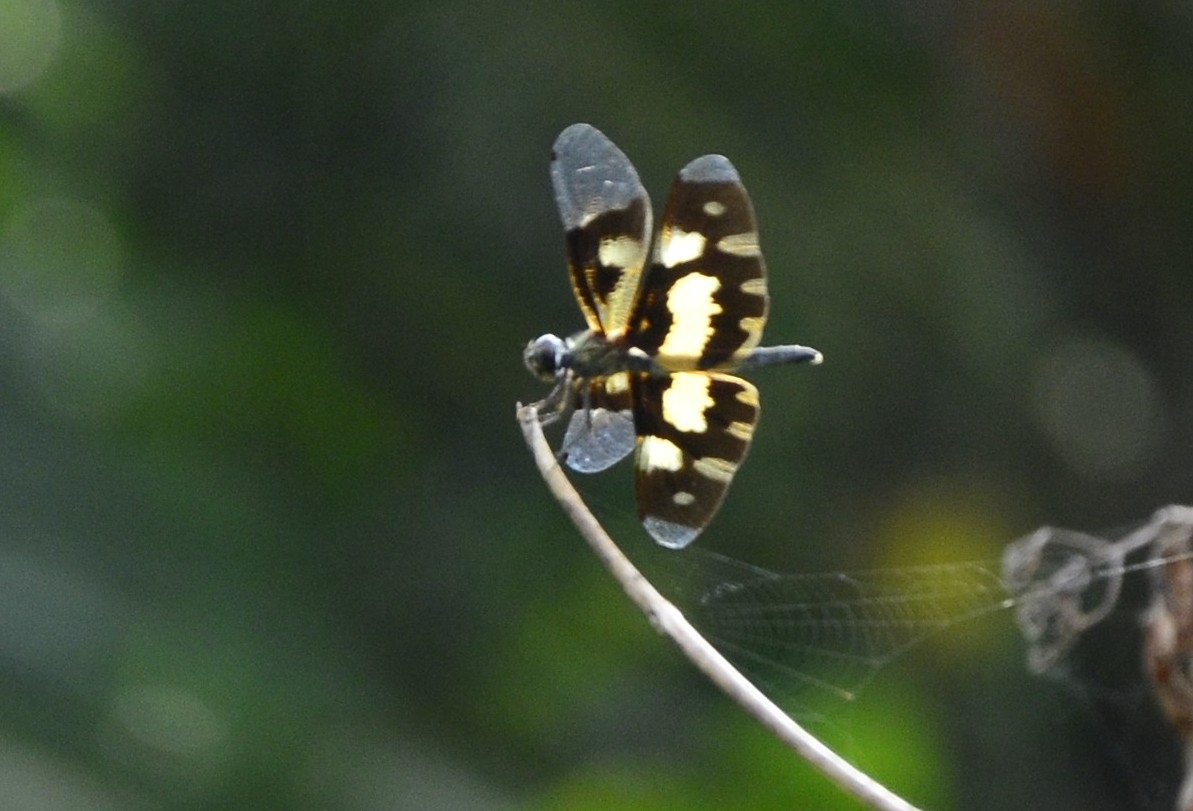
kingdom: Animalia
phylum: Arthropoda
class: Insecta
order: Odonata
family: Libellulidae
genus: Rhyothemis
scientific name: Rhyothemis variegata
